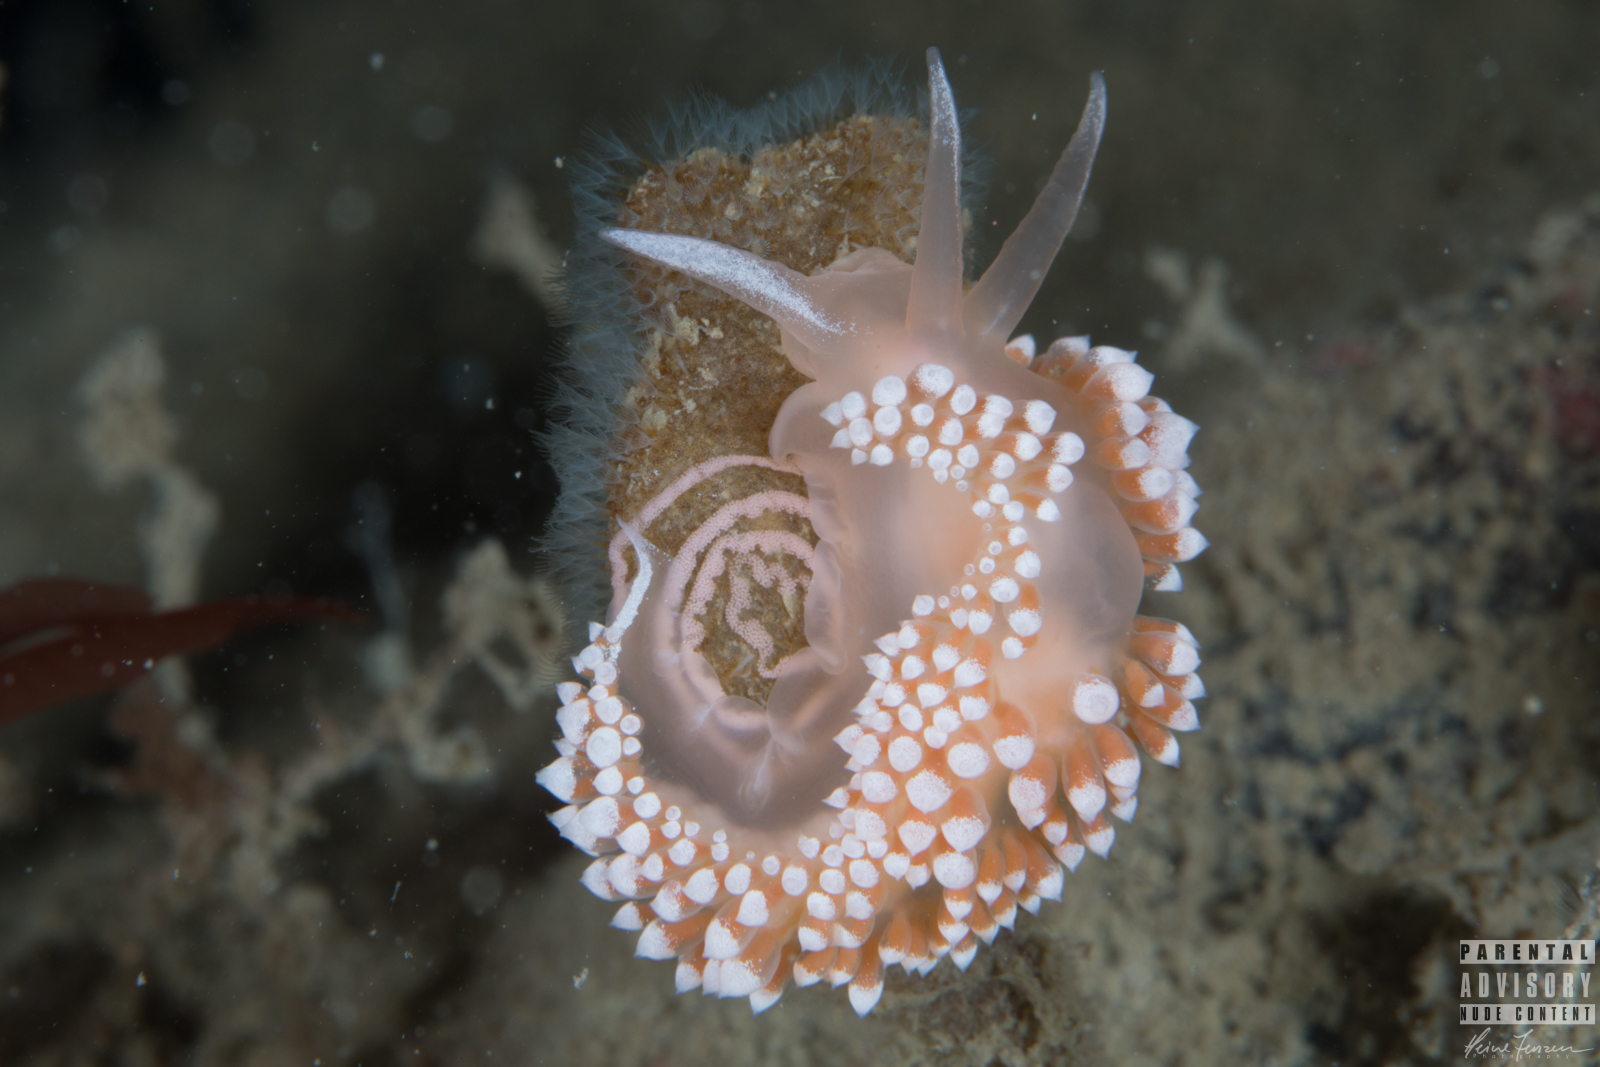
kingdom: Animalia
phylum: Mollusca
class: Gastropoda
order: Nudibranchia
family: Coryphellidae
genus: Coryphella
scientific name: Coryphella verrucosa
